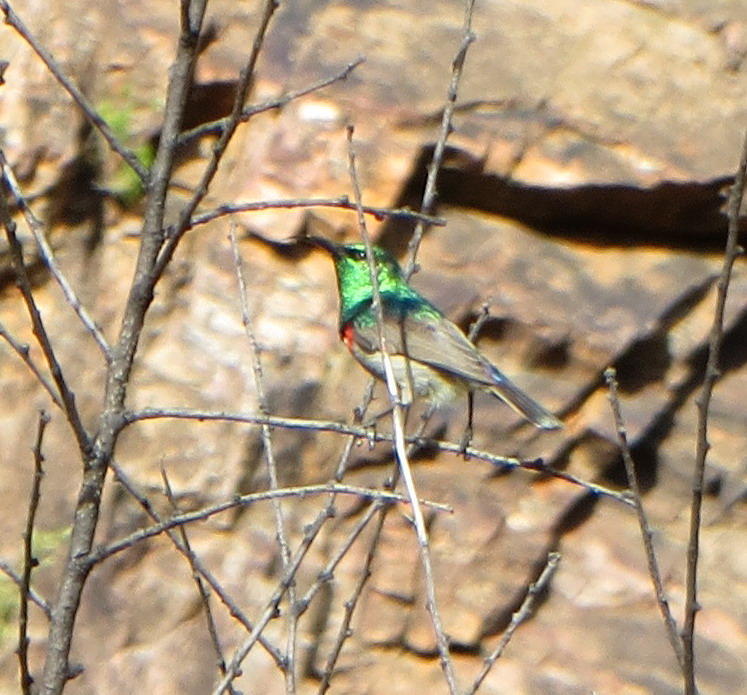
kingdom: Animalia
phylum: Chordata
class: Aves
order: Passeriformes
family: Nectariniidae
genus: Cinnyris
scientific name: Cinnyris chalybeus
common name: Southern double-collared sunbird
